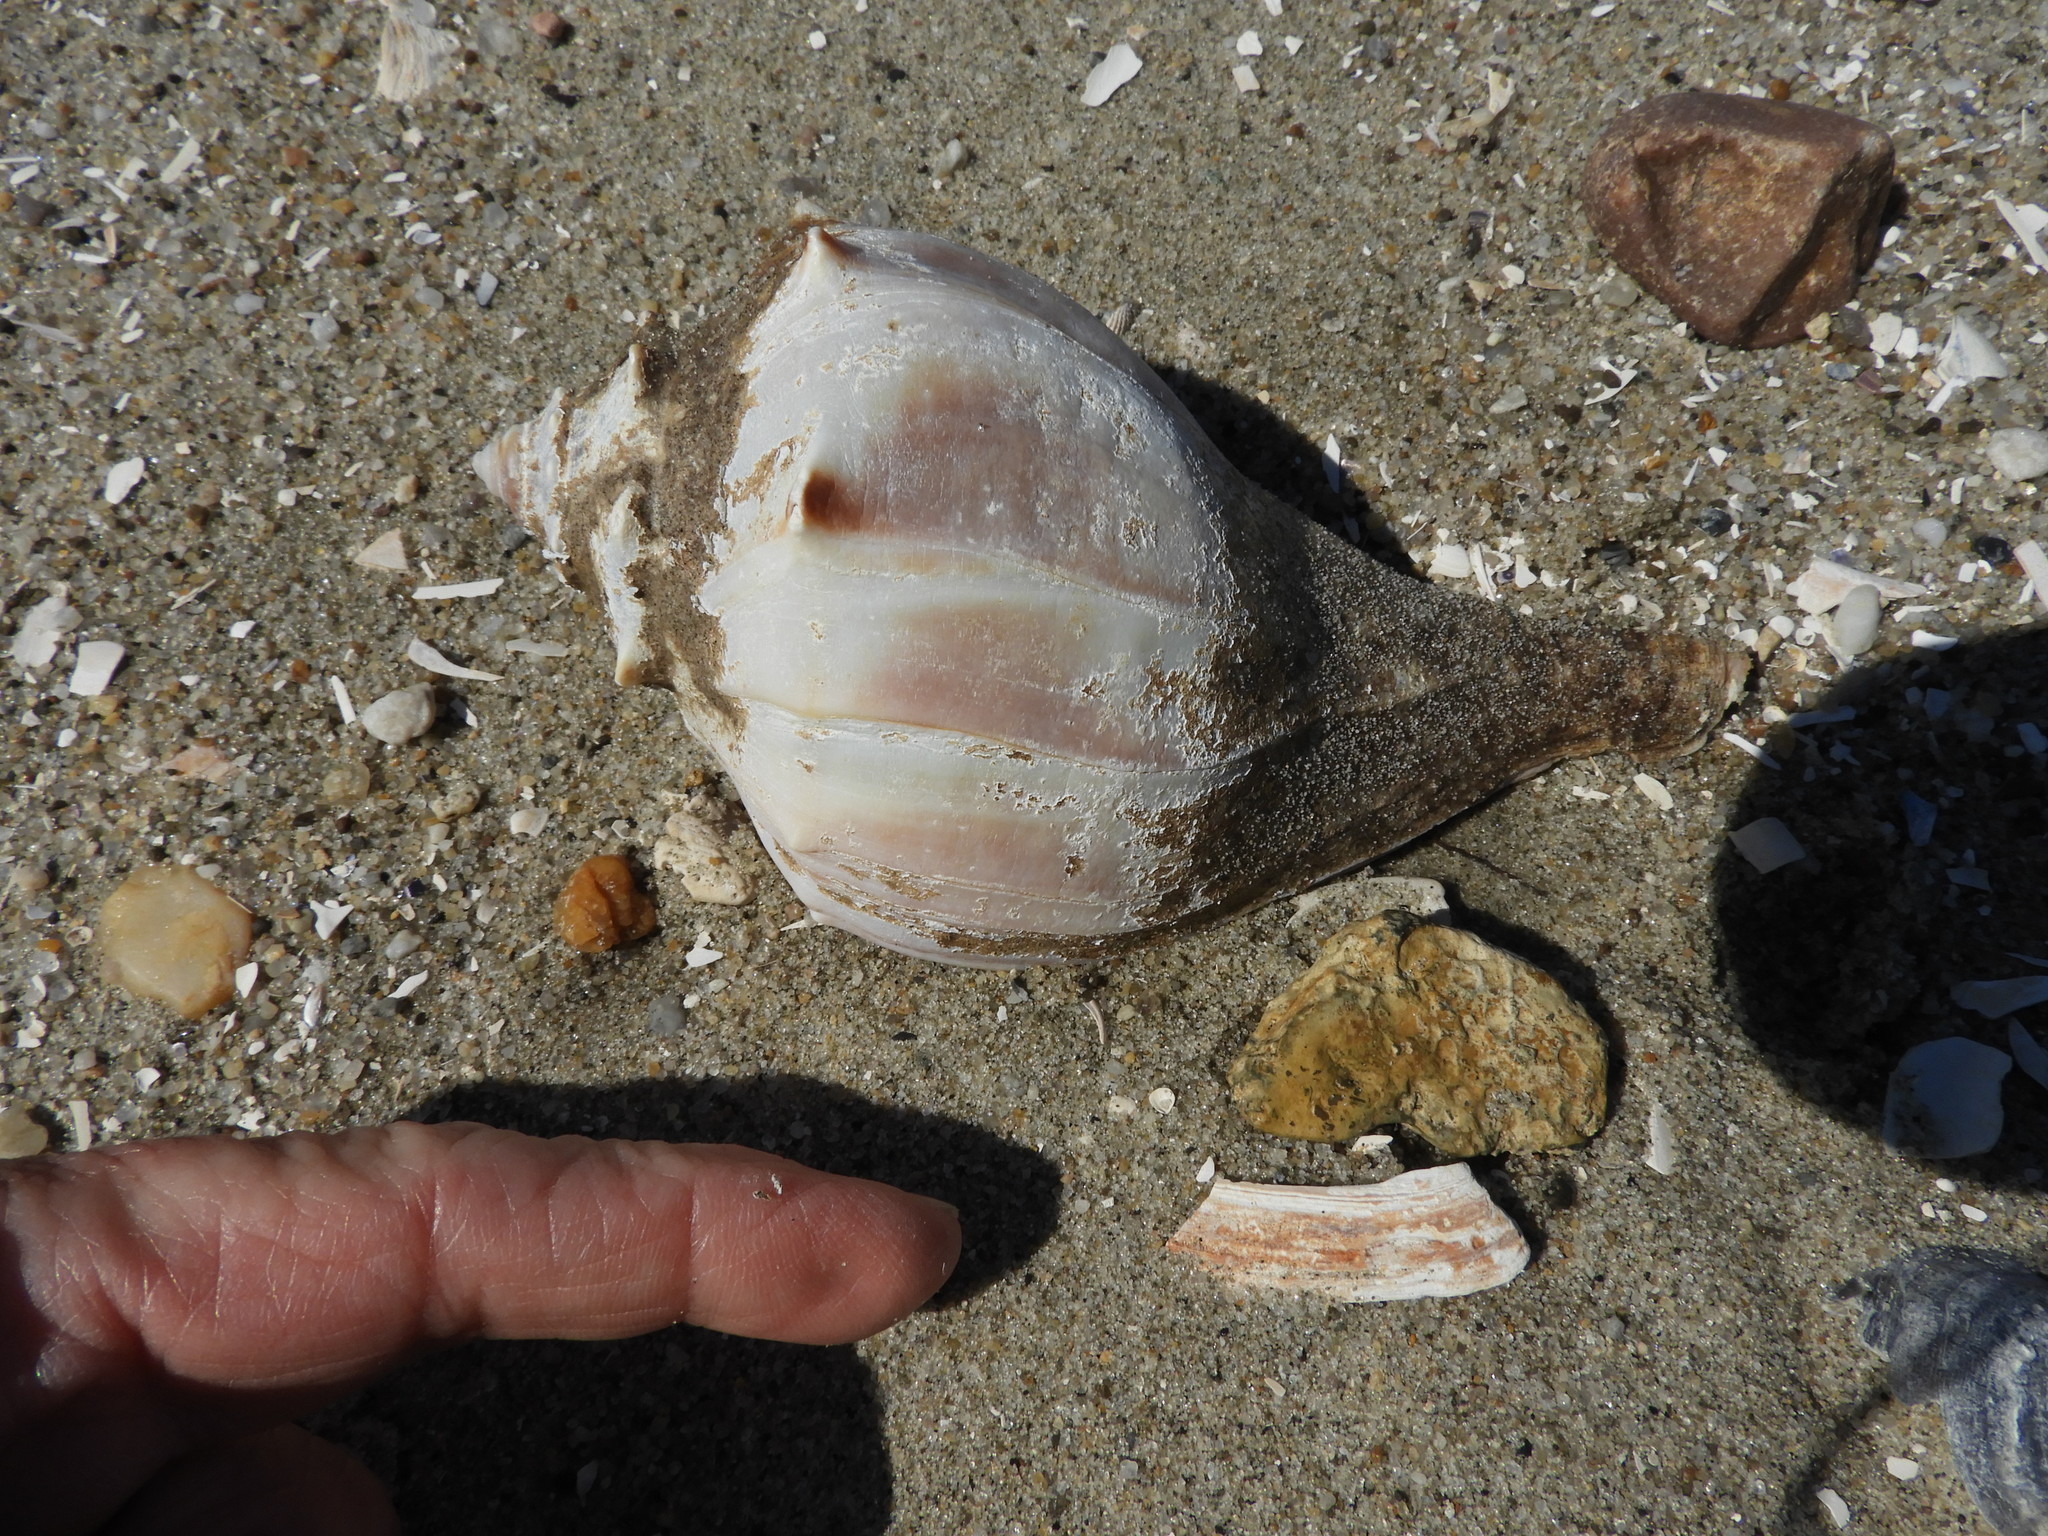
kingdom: Animalia
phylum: Mollusca
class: Gastropoda
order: Neogastropoda
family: Busyconidae
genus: Busycon
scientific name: Busycon carica
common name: Knobbed whelk
